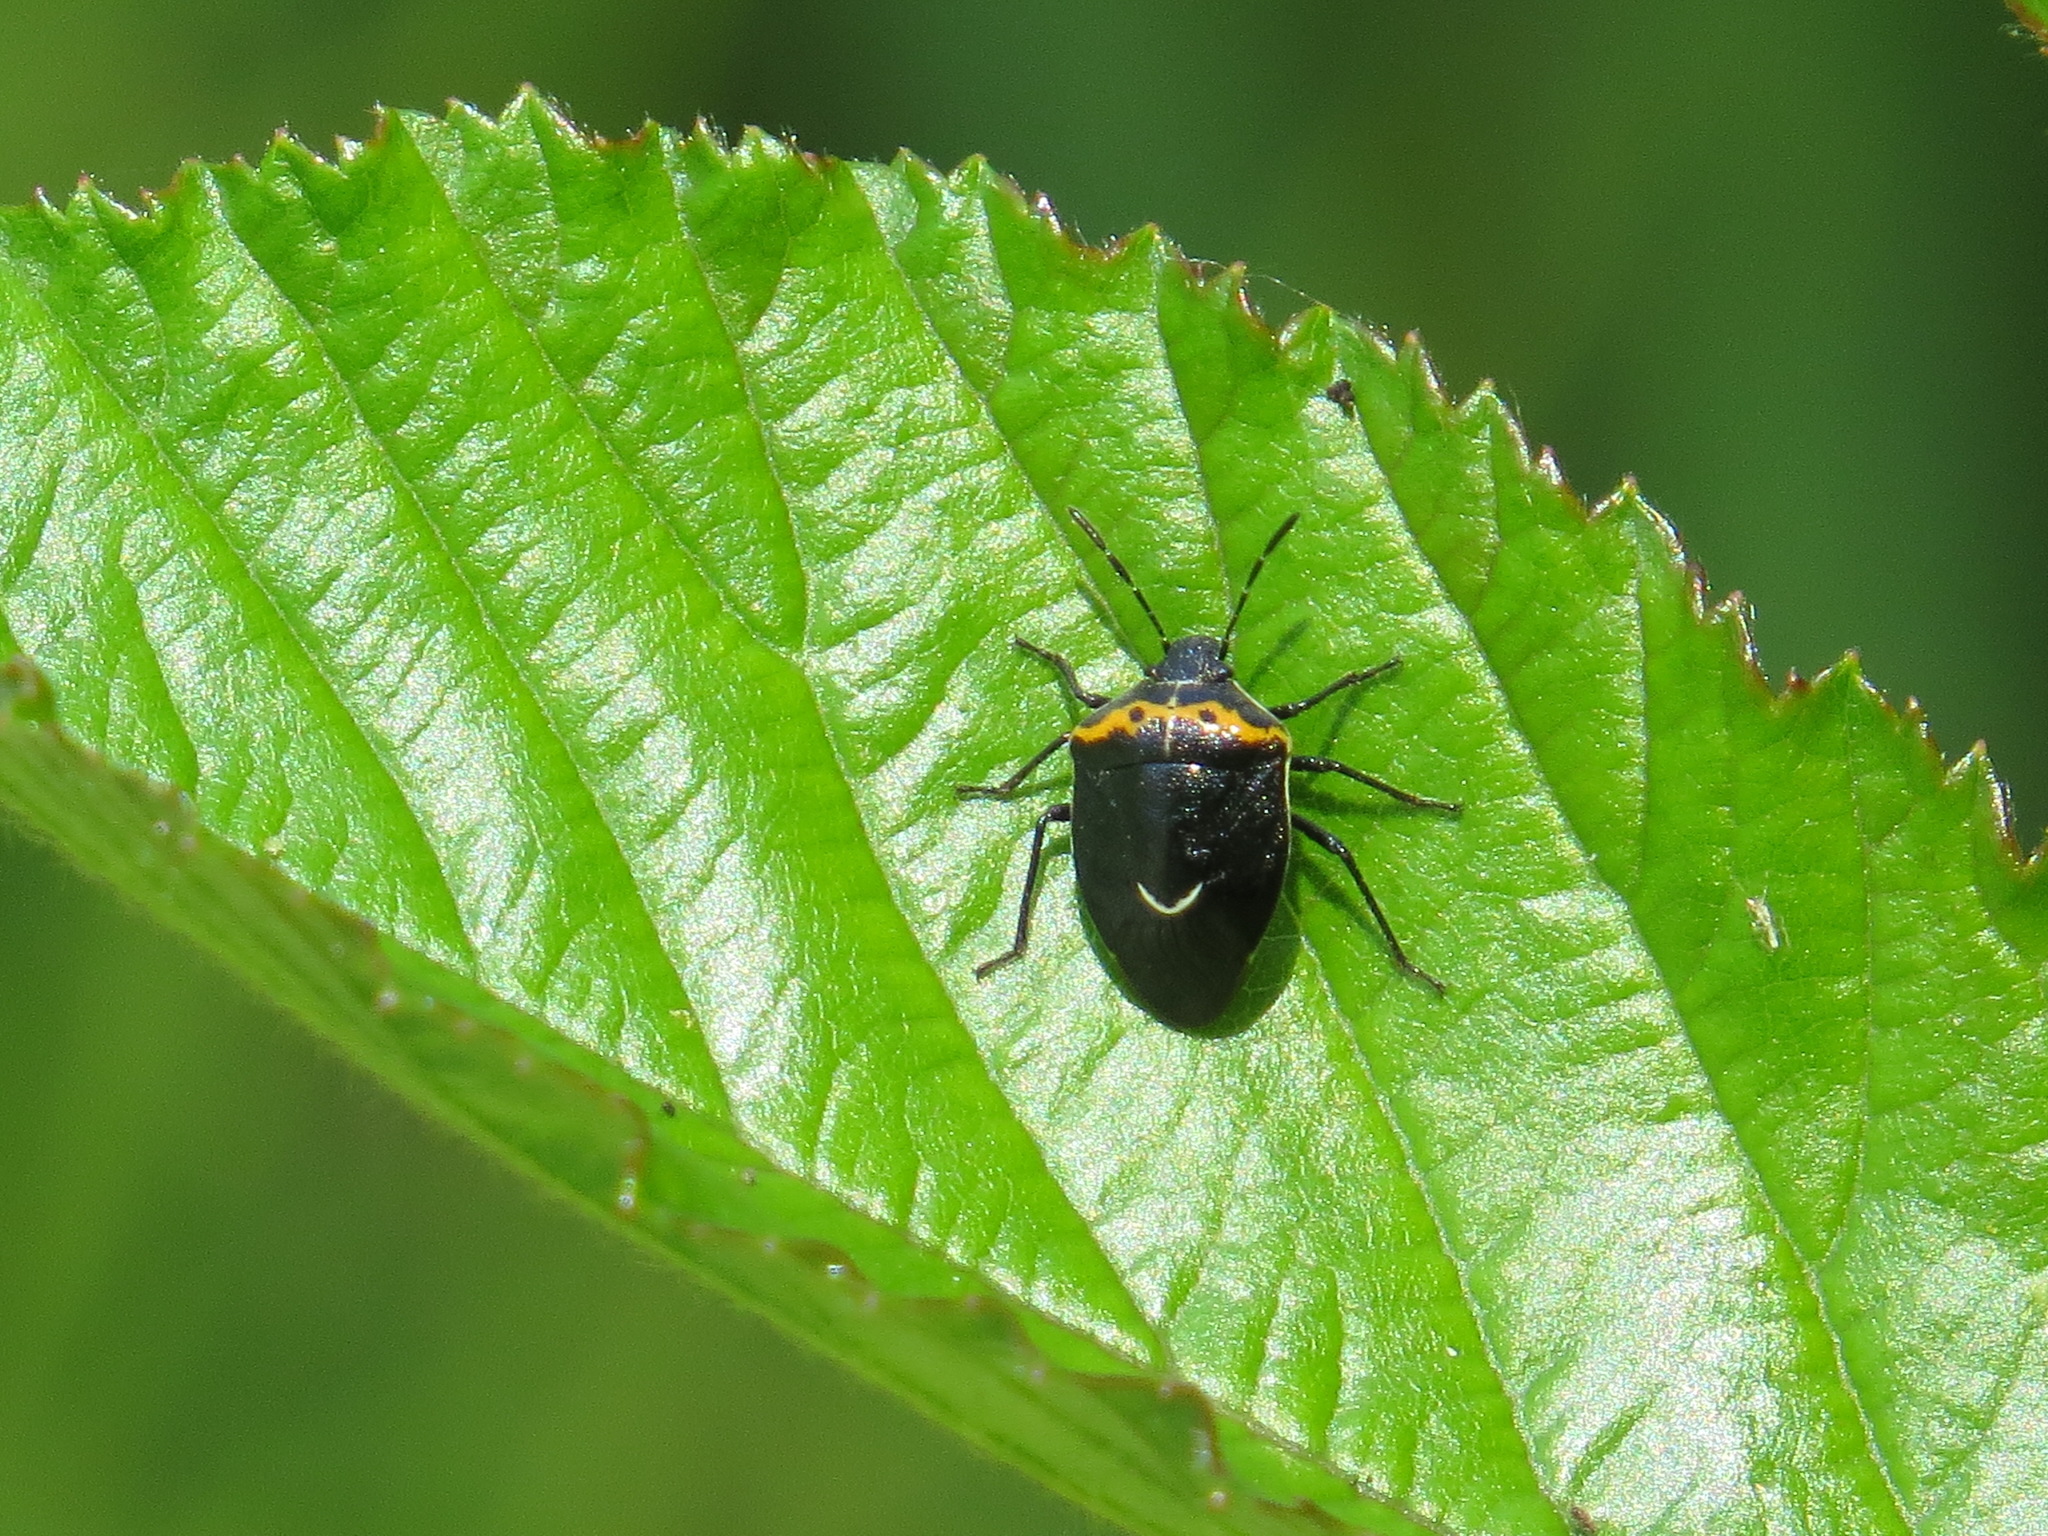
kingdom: Animalia
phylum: Arthropoda
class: Insecta
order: Hemiptera
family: Pentatomidae
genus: Cosmopepla
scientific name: Cosmopepla conspicillaris
